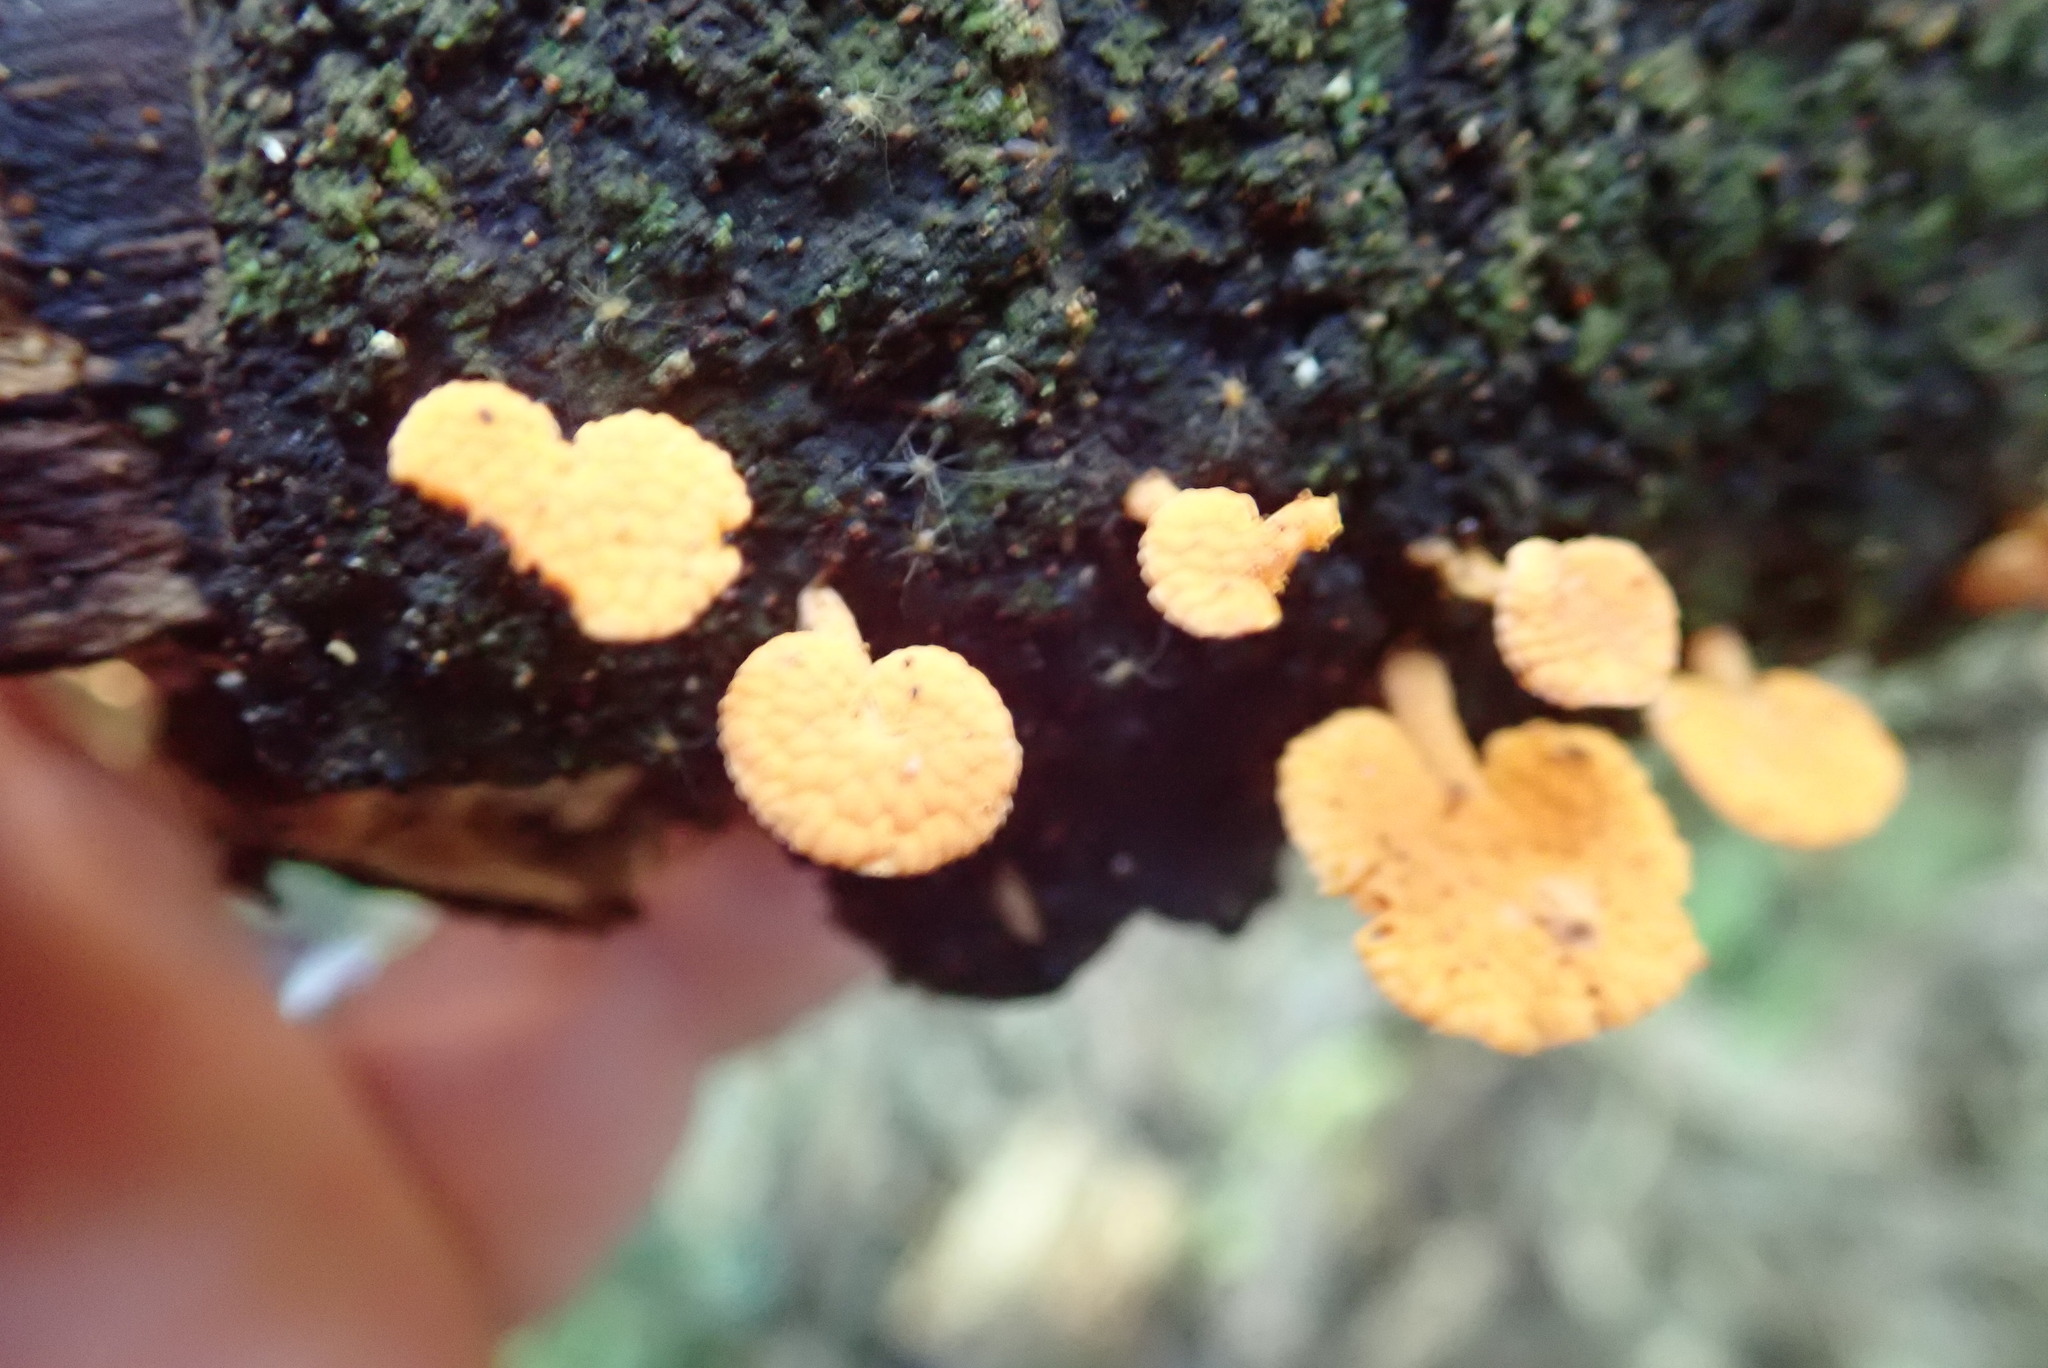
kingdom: Fungi
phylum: Basidiomycota
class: Agaricomycetes
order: Agaricales
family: Mycenaceae
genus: Favolaschia
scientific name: Favolaschia claudopus
